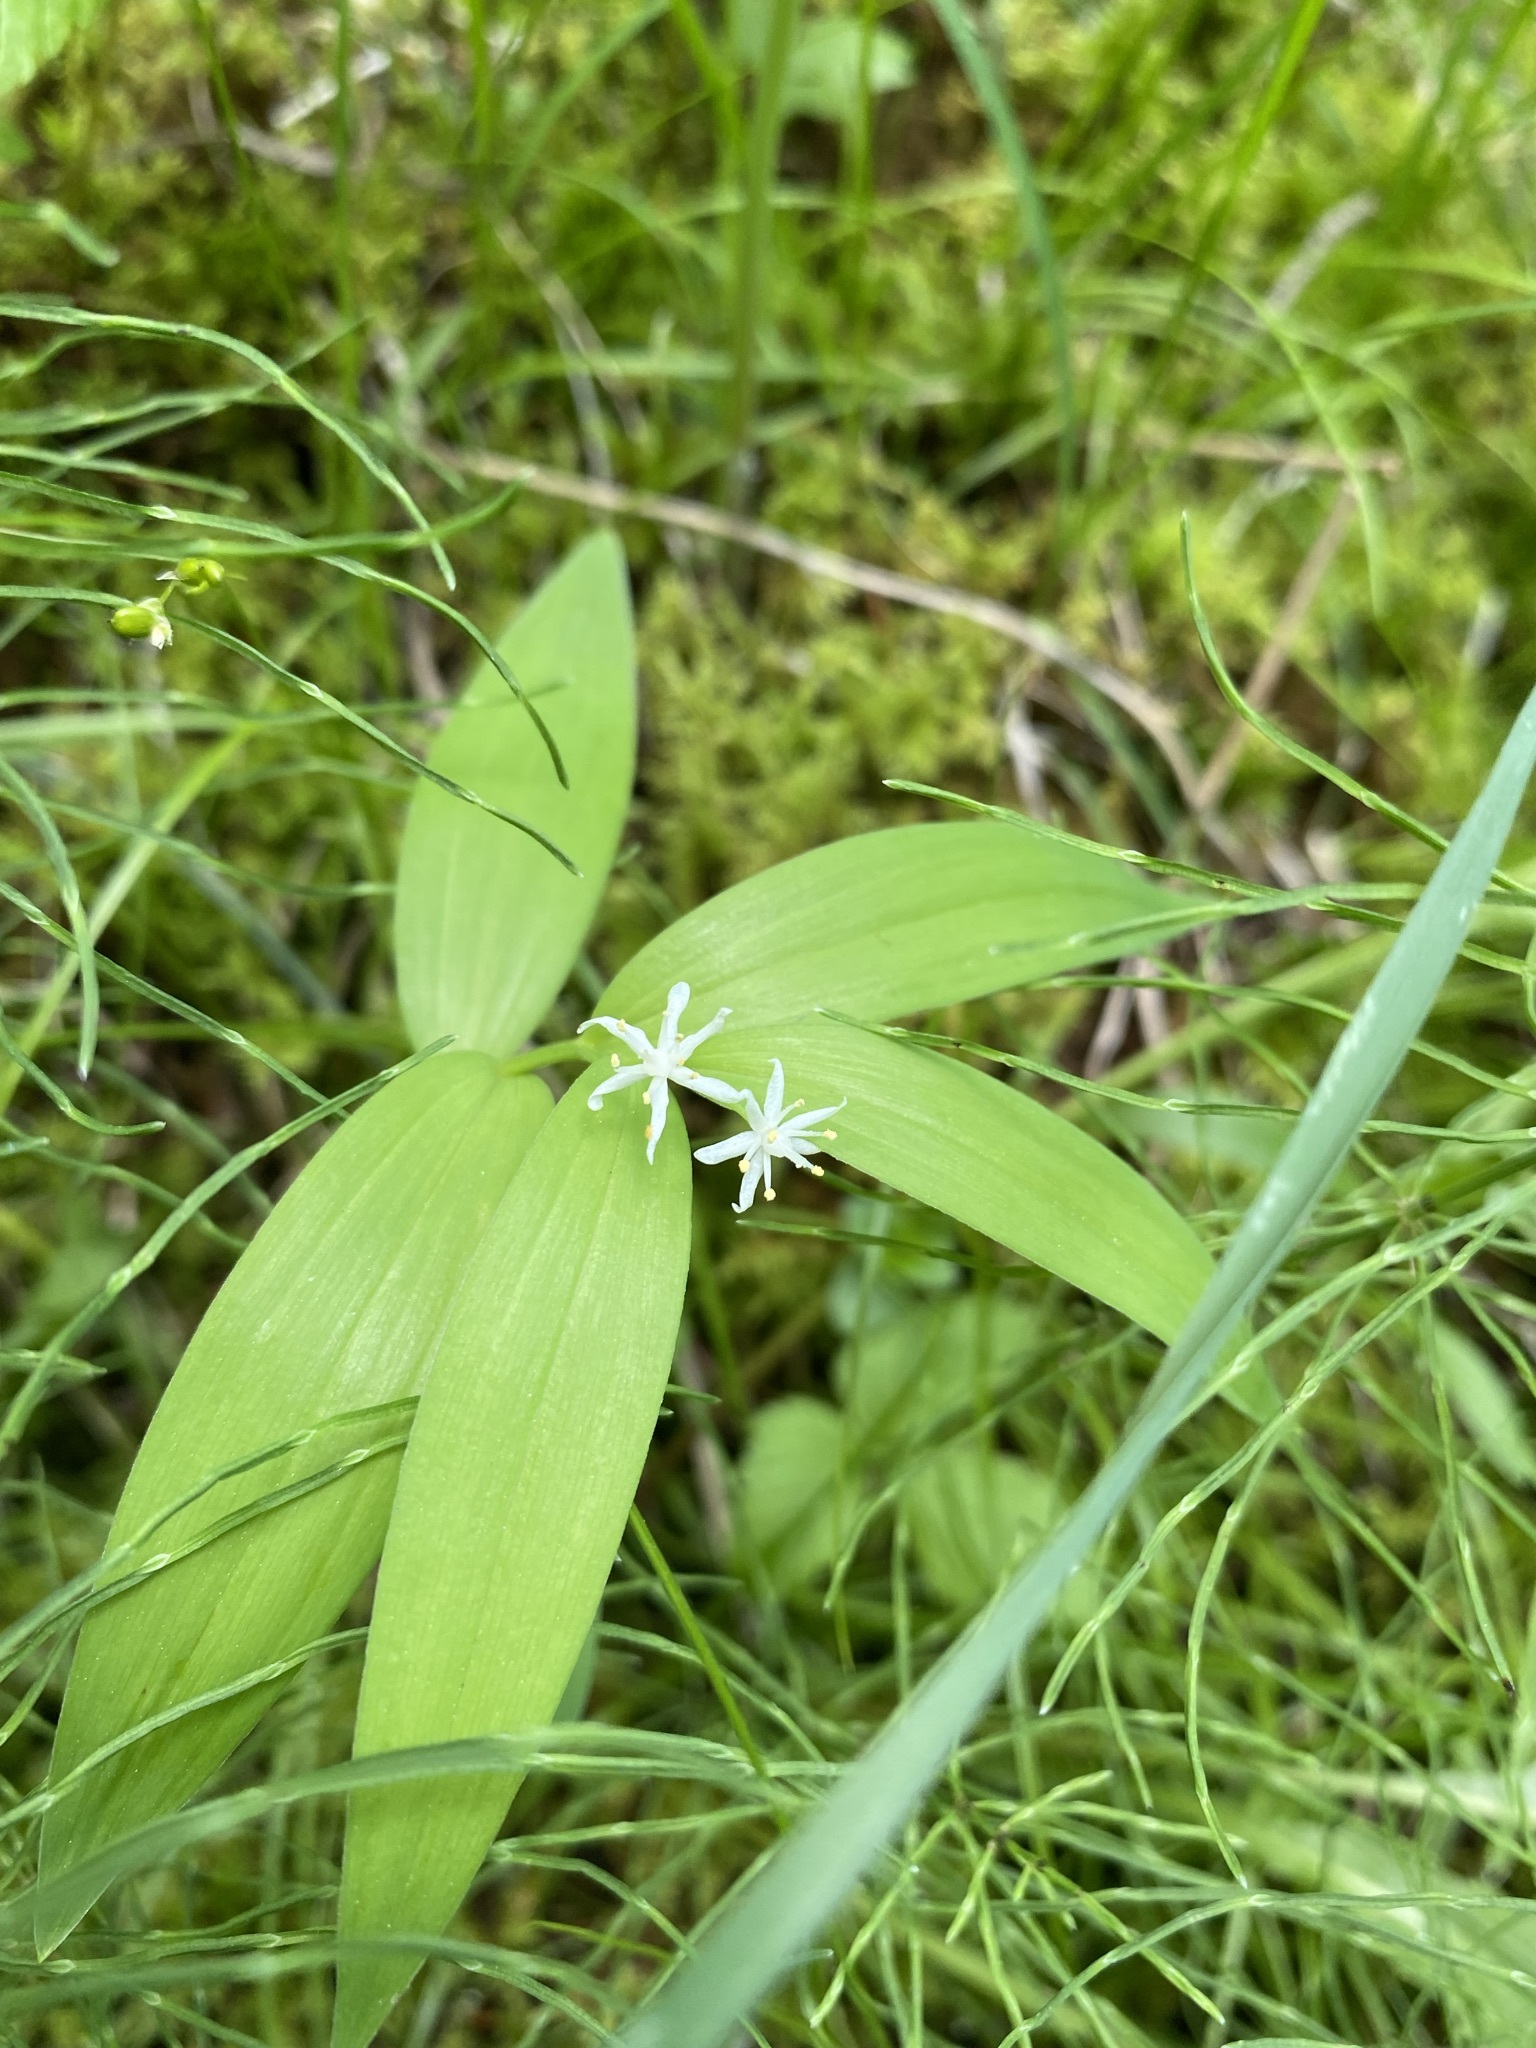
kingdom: Plantae
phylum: Tracheophyta
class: Liliopsida
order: Asparagales
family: Asparagaceae
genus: Maianthemum
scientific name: Maianthemum stellatum
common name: Little false solomon's seal
